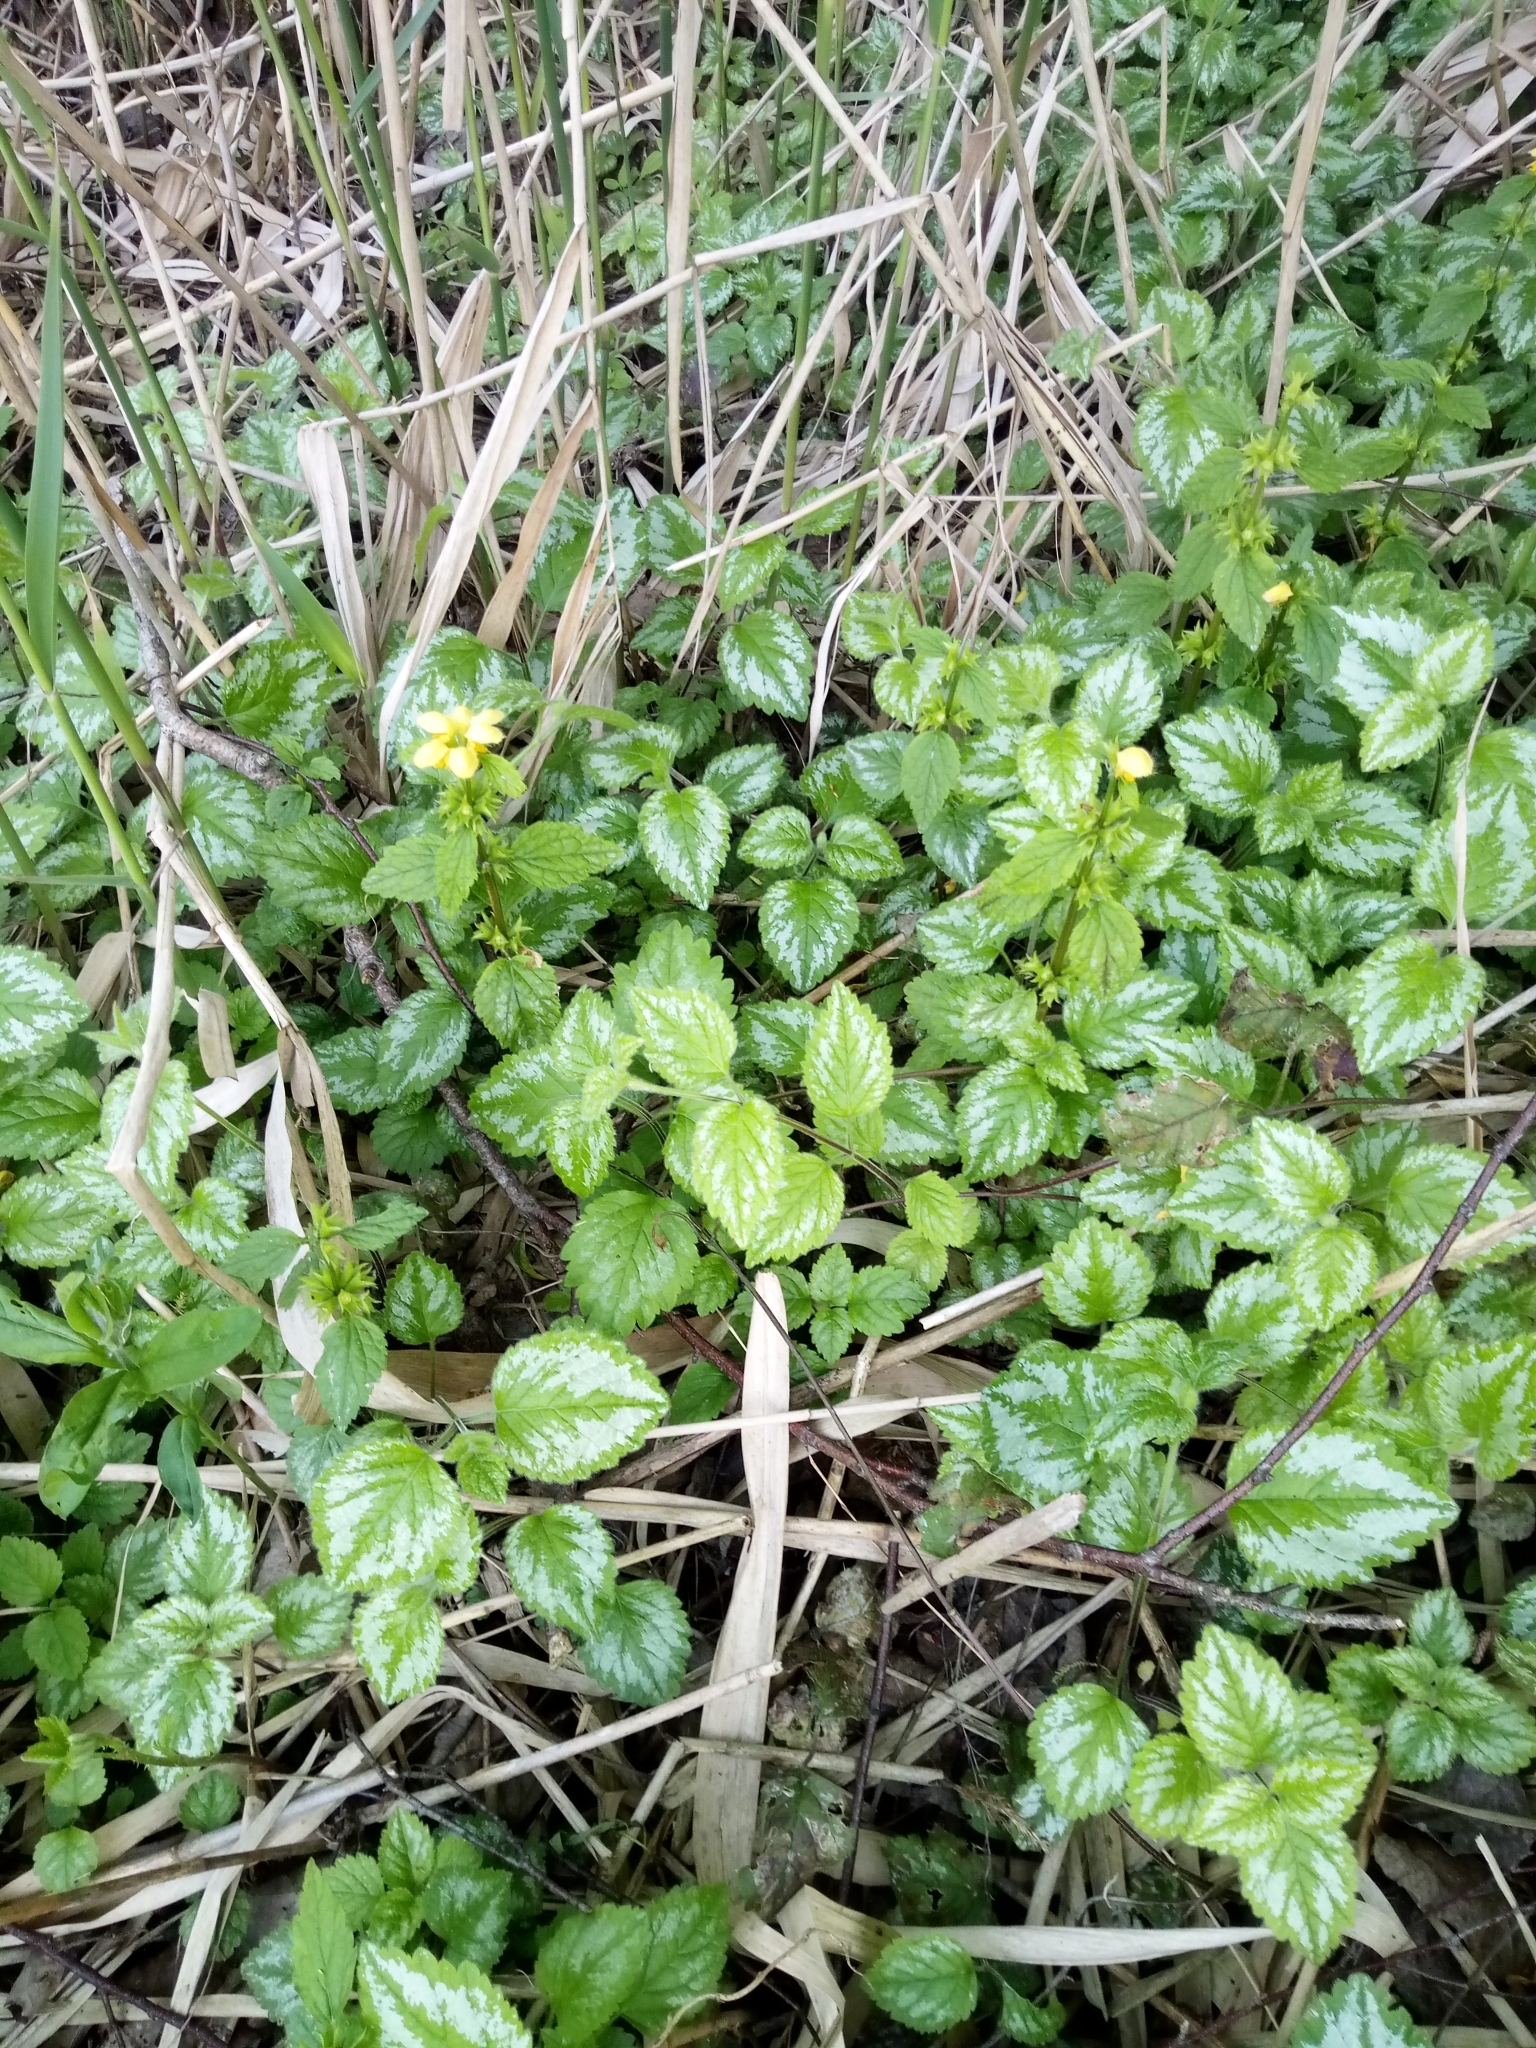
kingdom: Plantae
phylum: Tracheophyta
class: Magnoliopsida
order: Lamiales
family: Lamiaceae
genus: Lamium
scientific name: Lamium galeobdolon
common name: Yellow archangel
